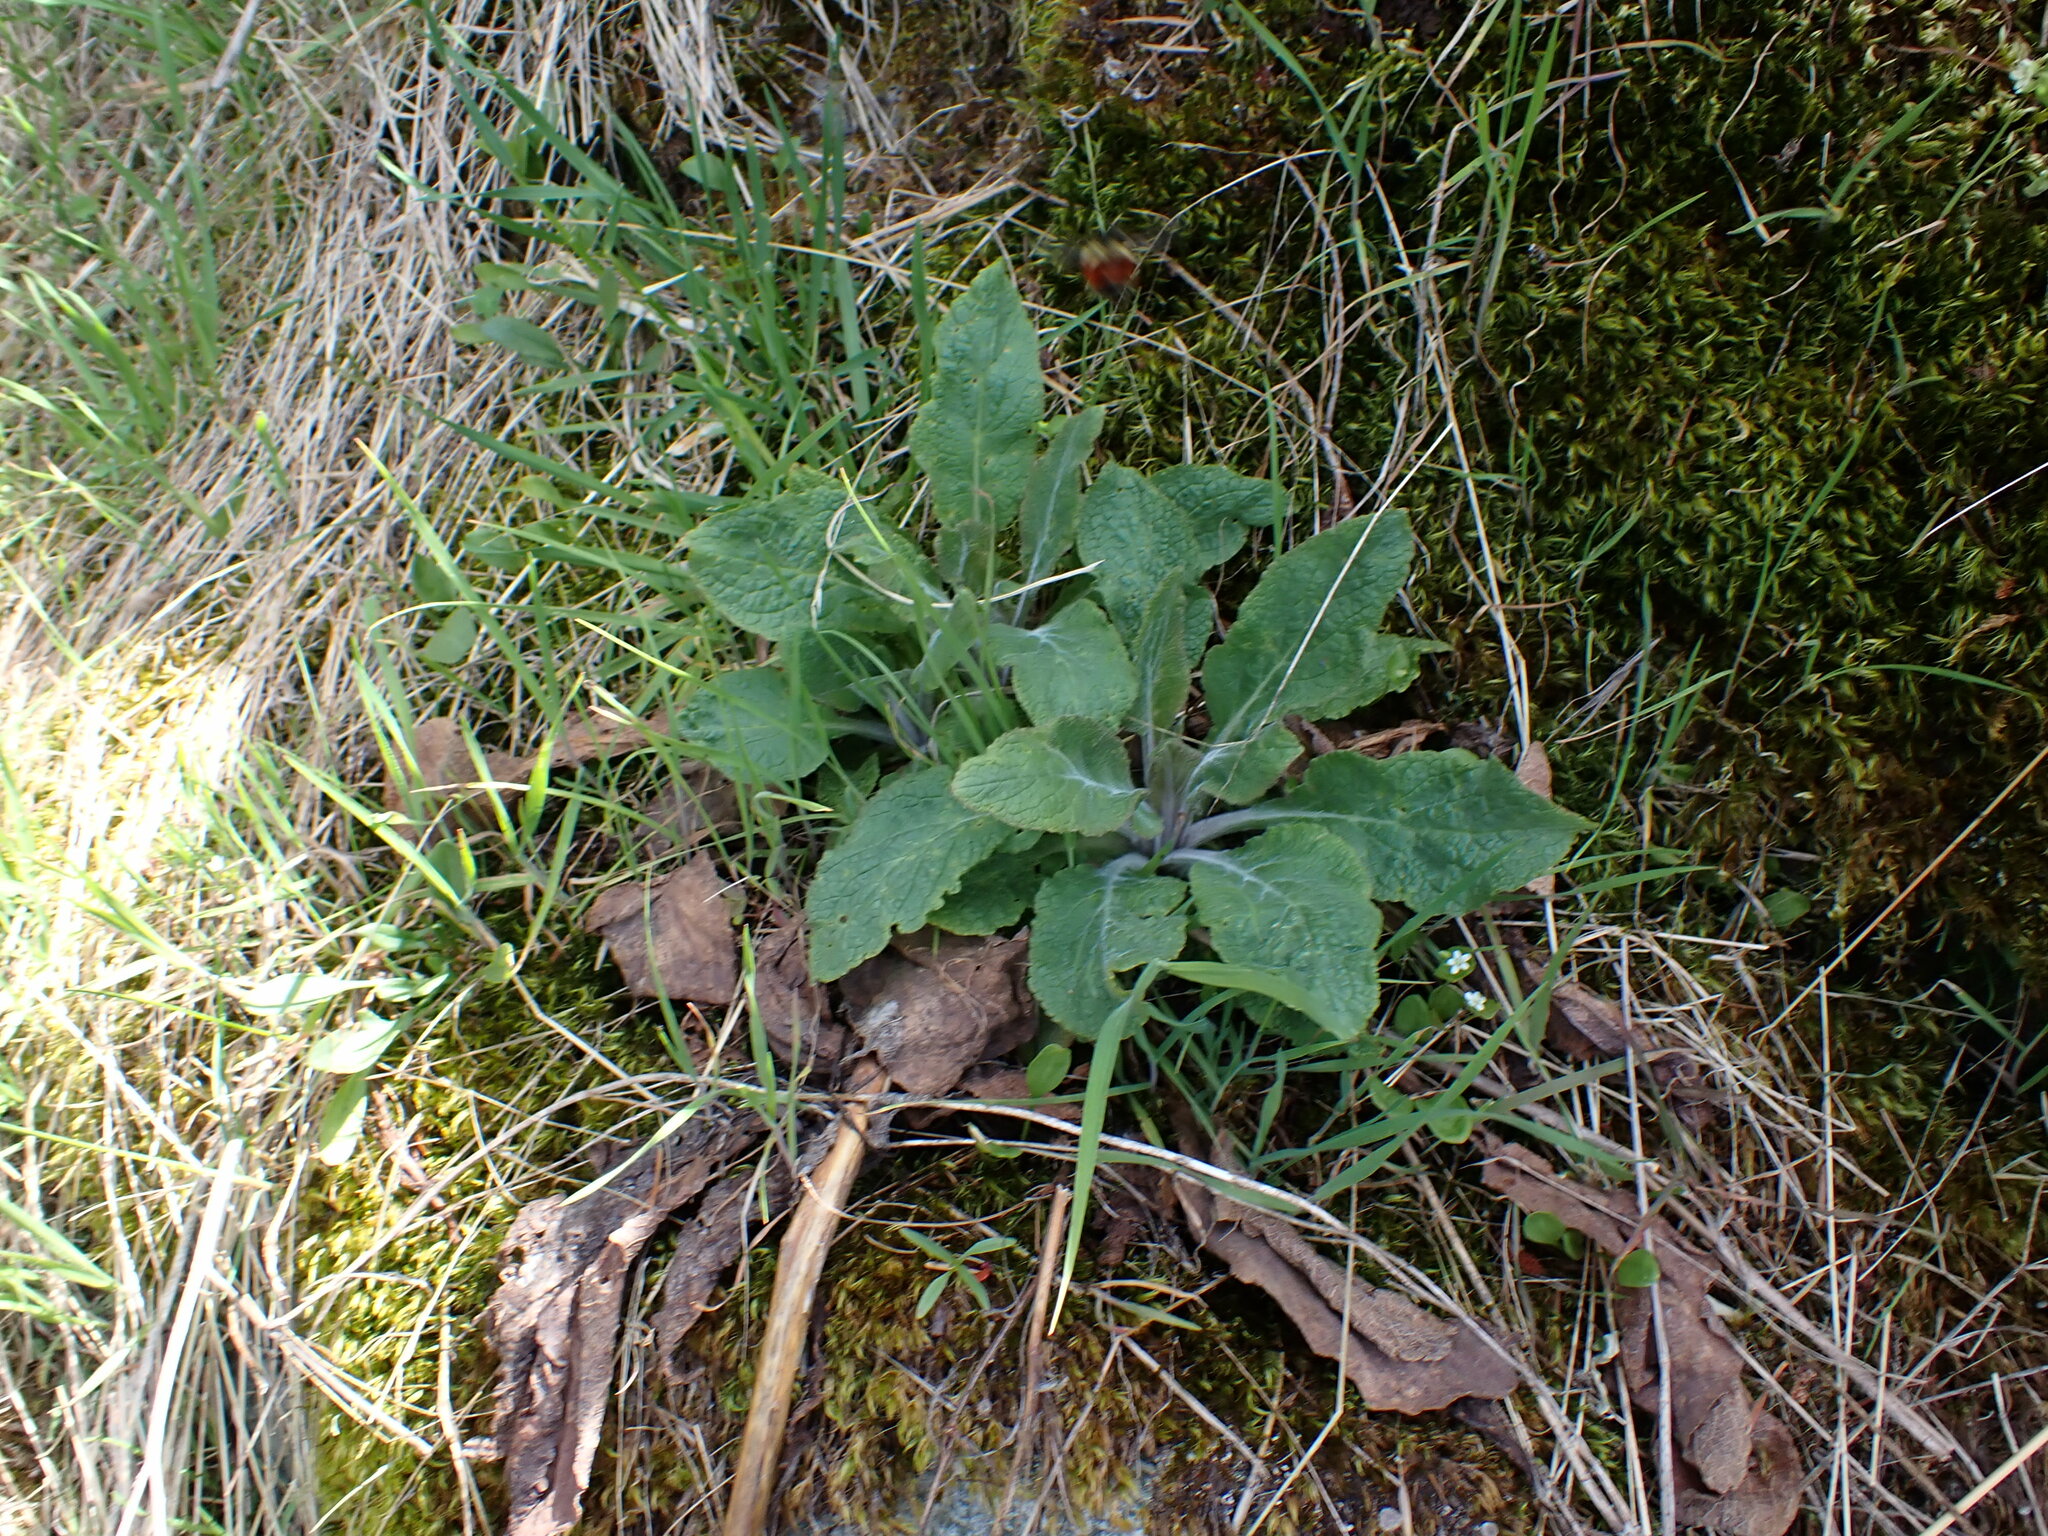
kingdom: Plantae
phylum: Tracheophyta
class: Magnoliopsida
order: Lamiales
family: Plantaginaceae
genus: Digitalis
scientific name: Digitalis purpurea
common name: Foxglove
